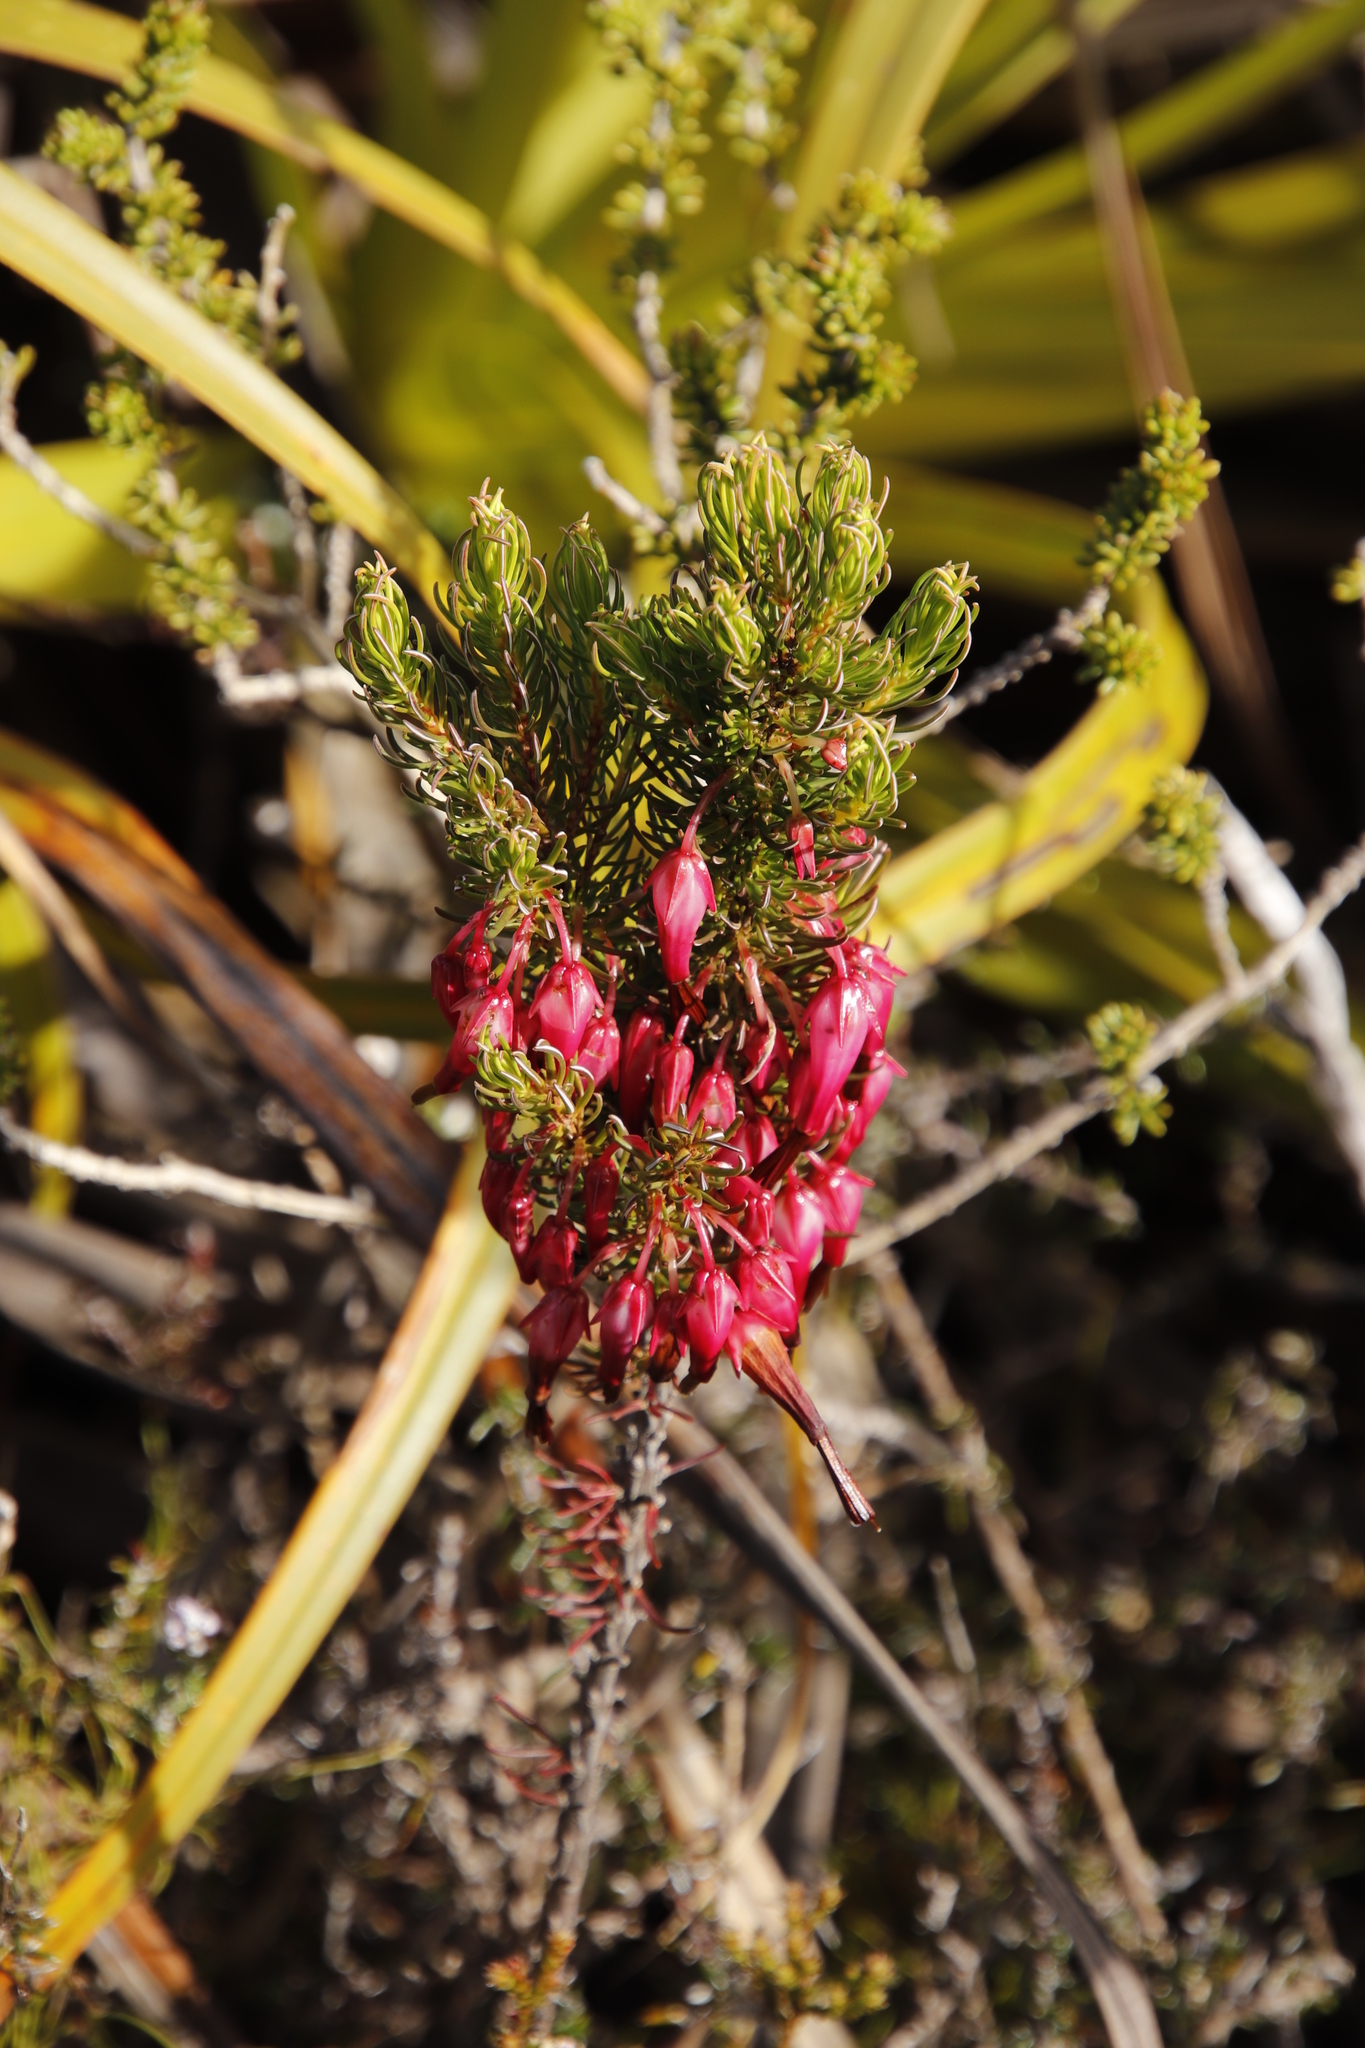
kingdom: Plantae
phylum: Tracheophyta
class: Magnoliopsida
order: Ericales
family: Ericaceae
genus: Erica
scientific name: Erica plukenetii
